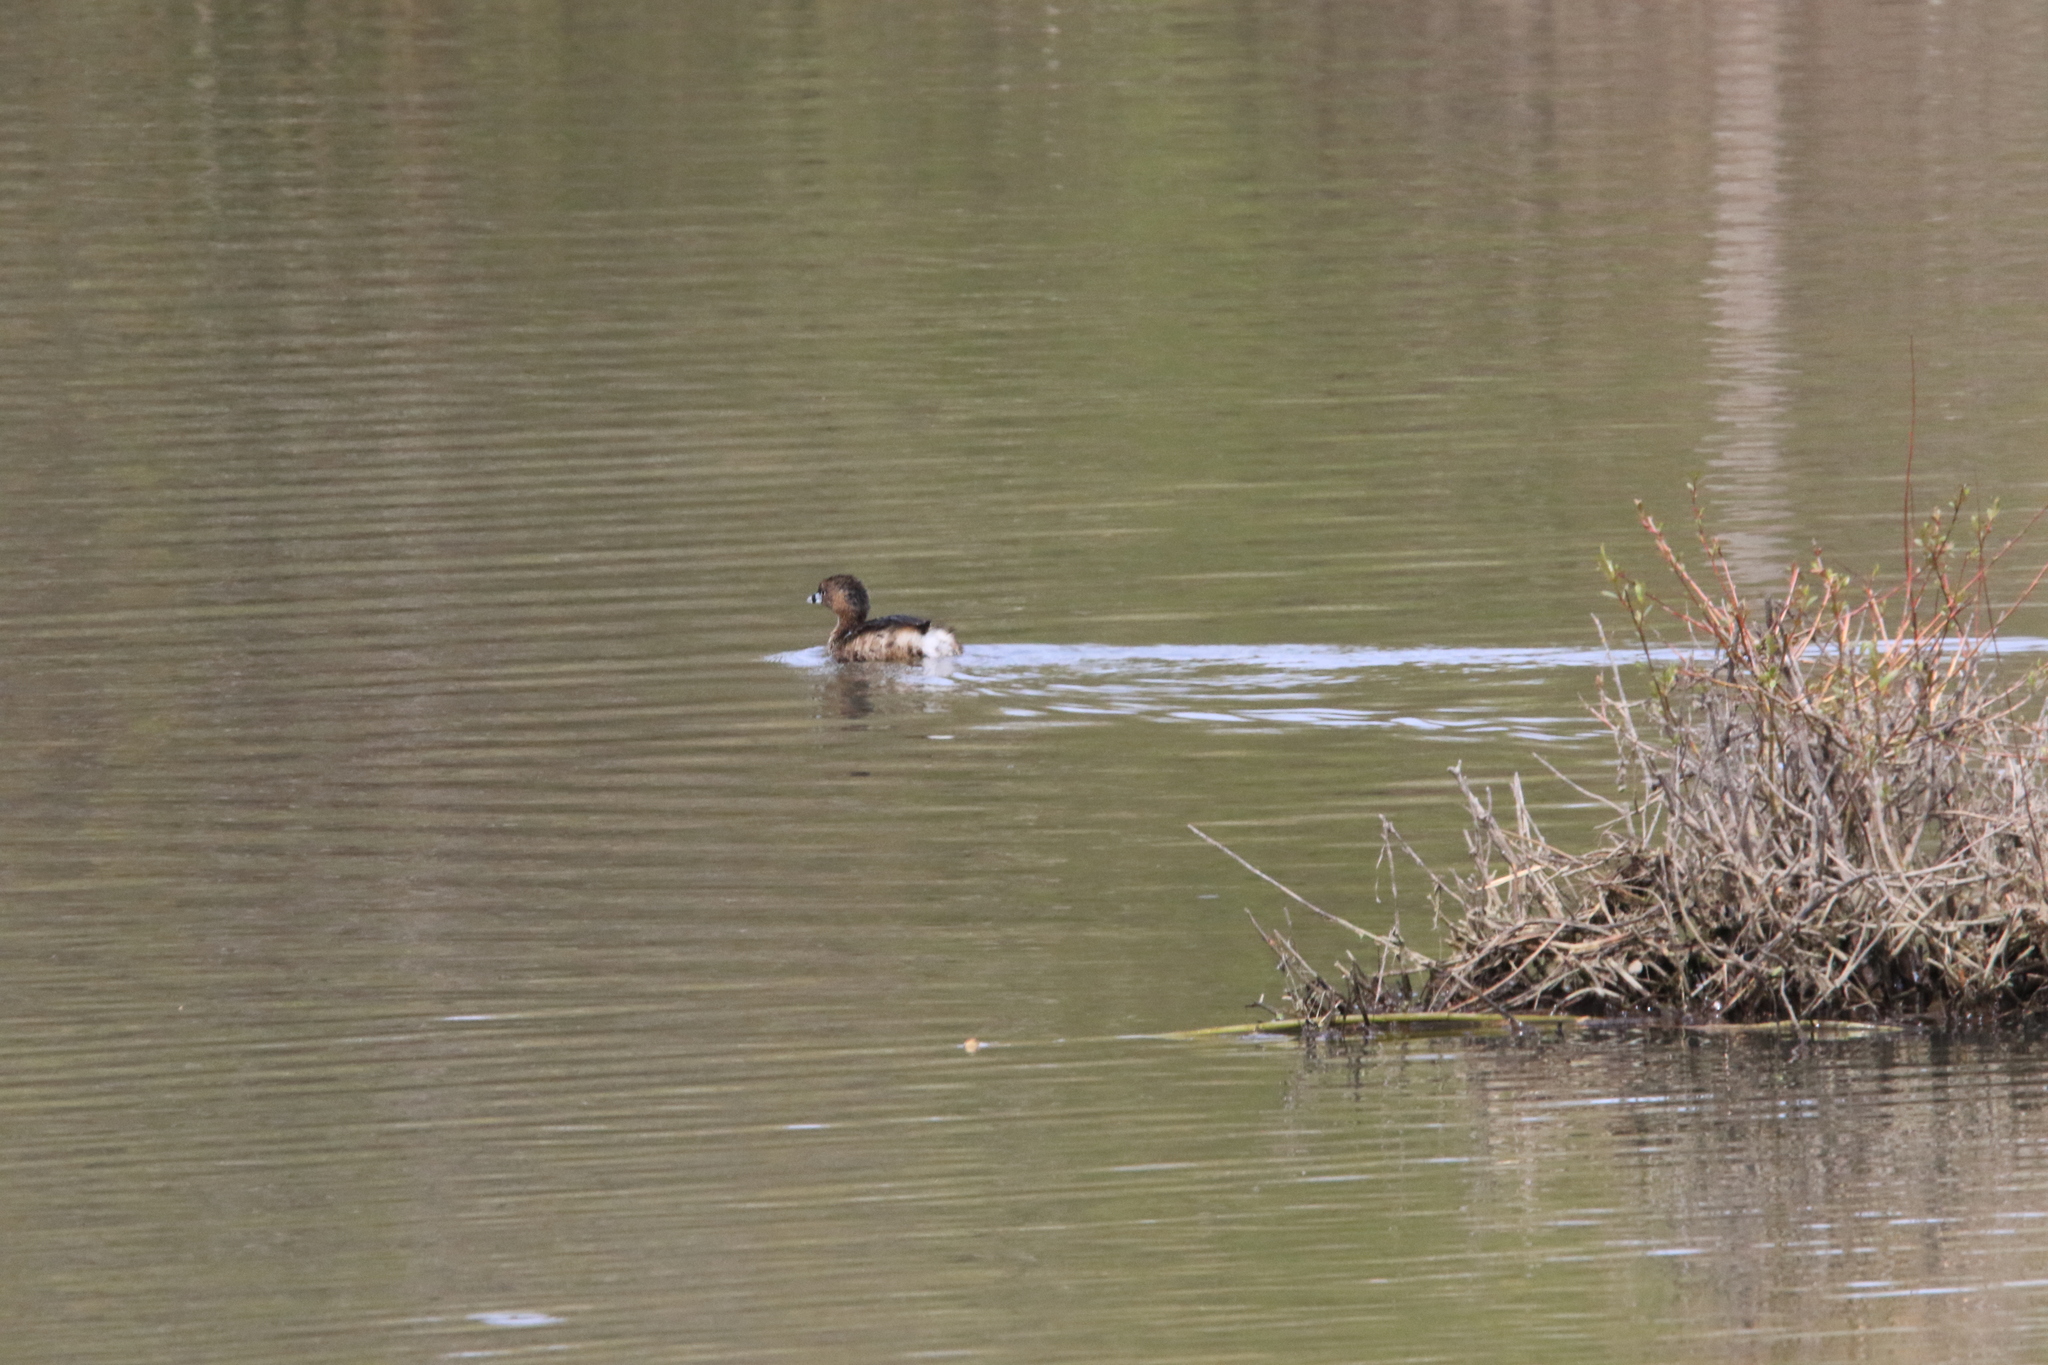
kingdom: Animalia
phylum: Chordata
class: Aves
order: Podicipediformes
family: Podicipedidae
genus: Podilymbus
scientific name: Podilymbus podiceps
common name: Pied-billed grebe
